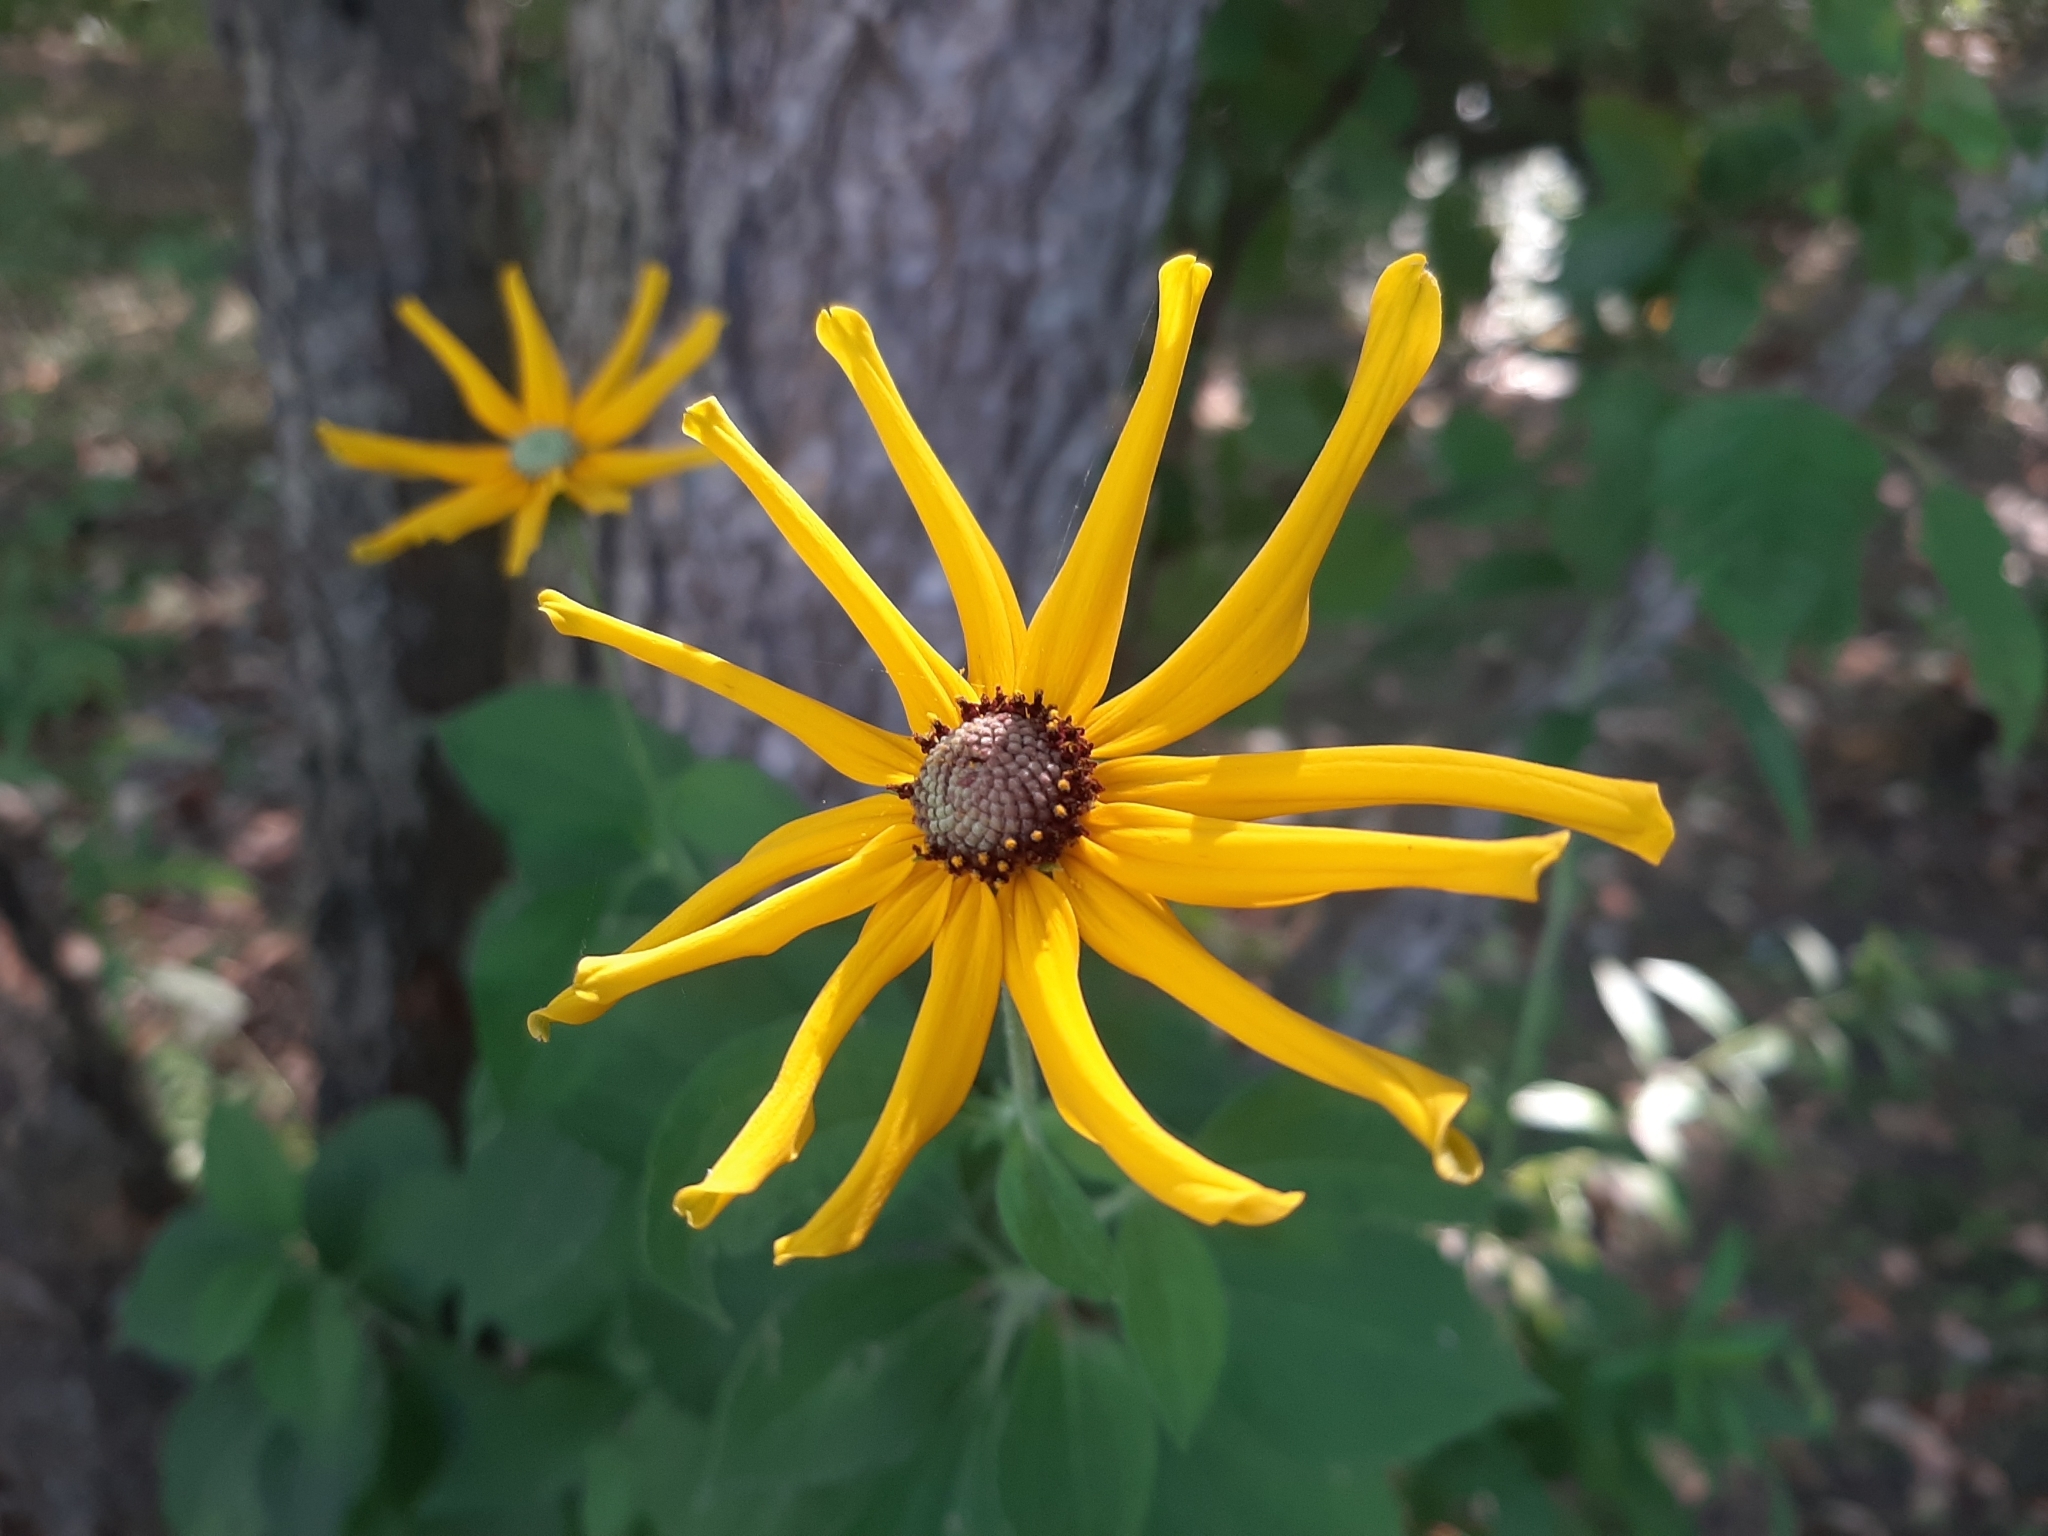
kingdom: Plantae
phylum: Tracheophyta
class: Magnoliopsida
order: Asterales
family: Asteraceae
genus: Rudbeckia
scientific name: Rudbeckia subtomentosa
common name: Sweet coneflower
